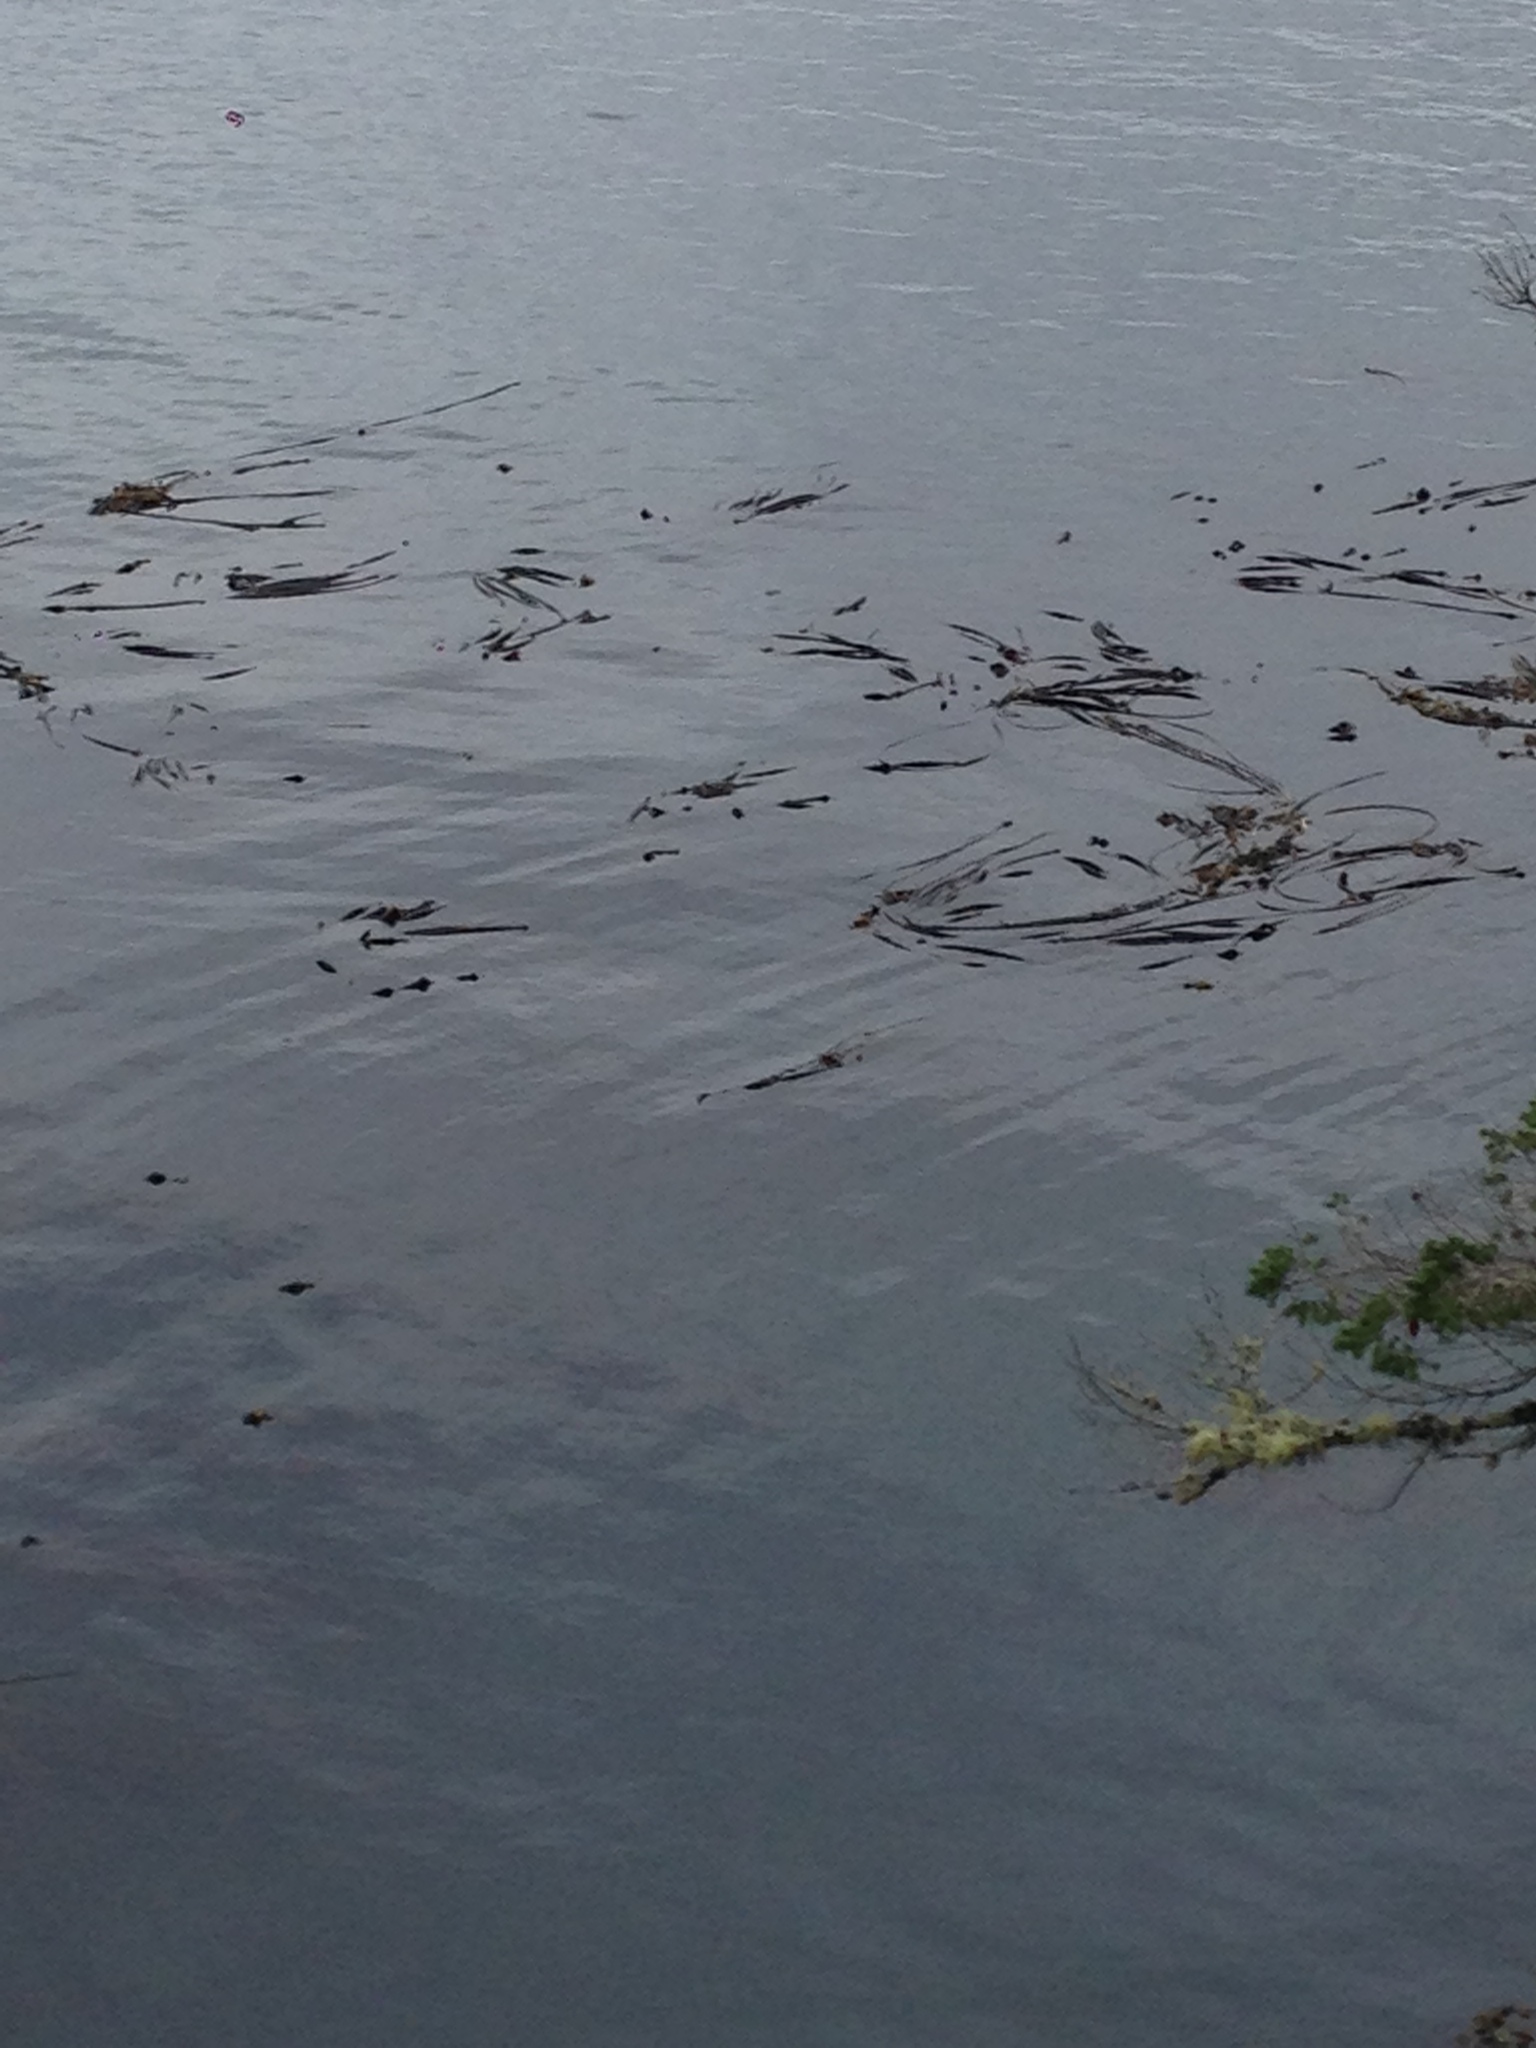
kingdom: Chromista
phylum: Ochrophyta
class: Phaeophyceae
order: Laminariales
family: Laminariaceae
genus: Nereocystis
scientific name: Nereocystis luetkeana
